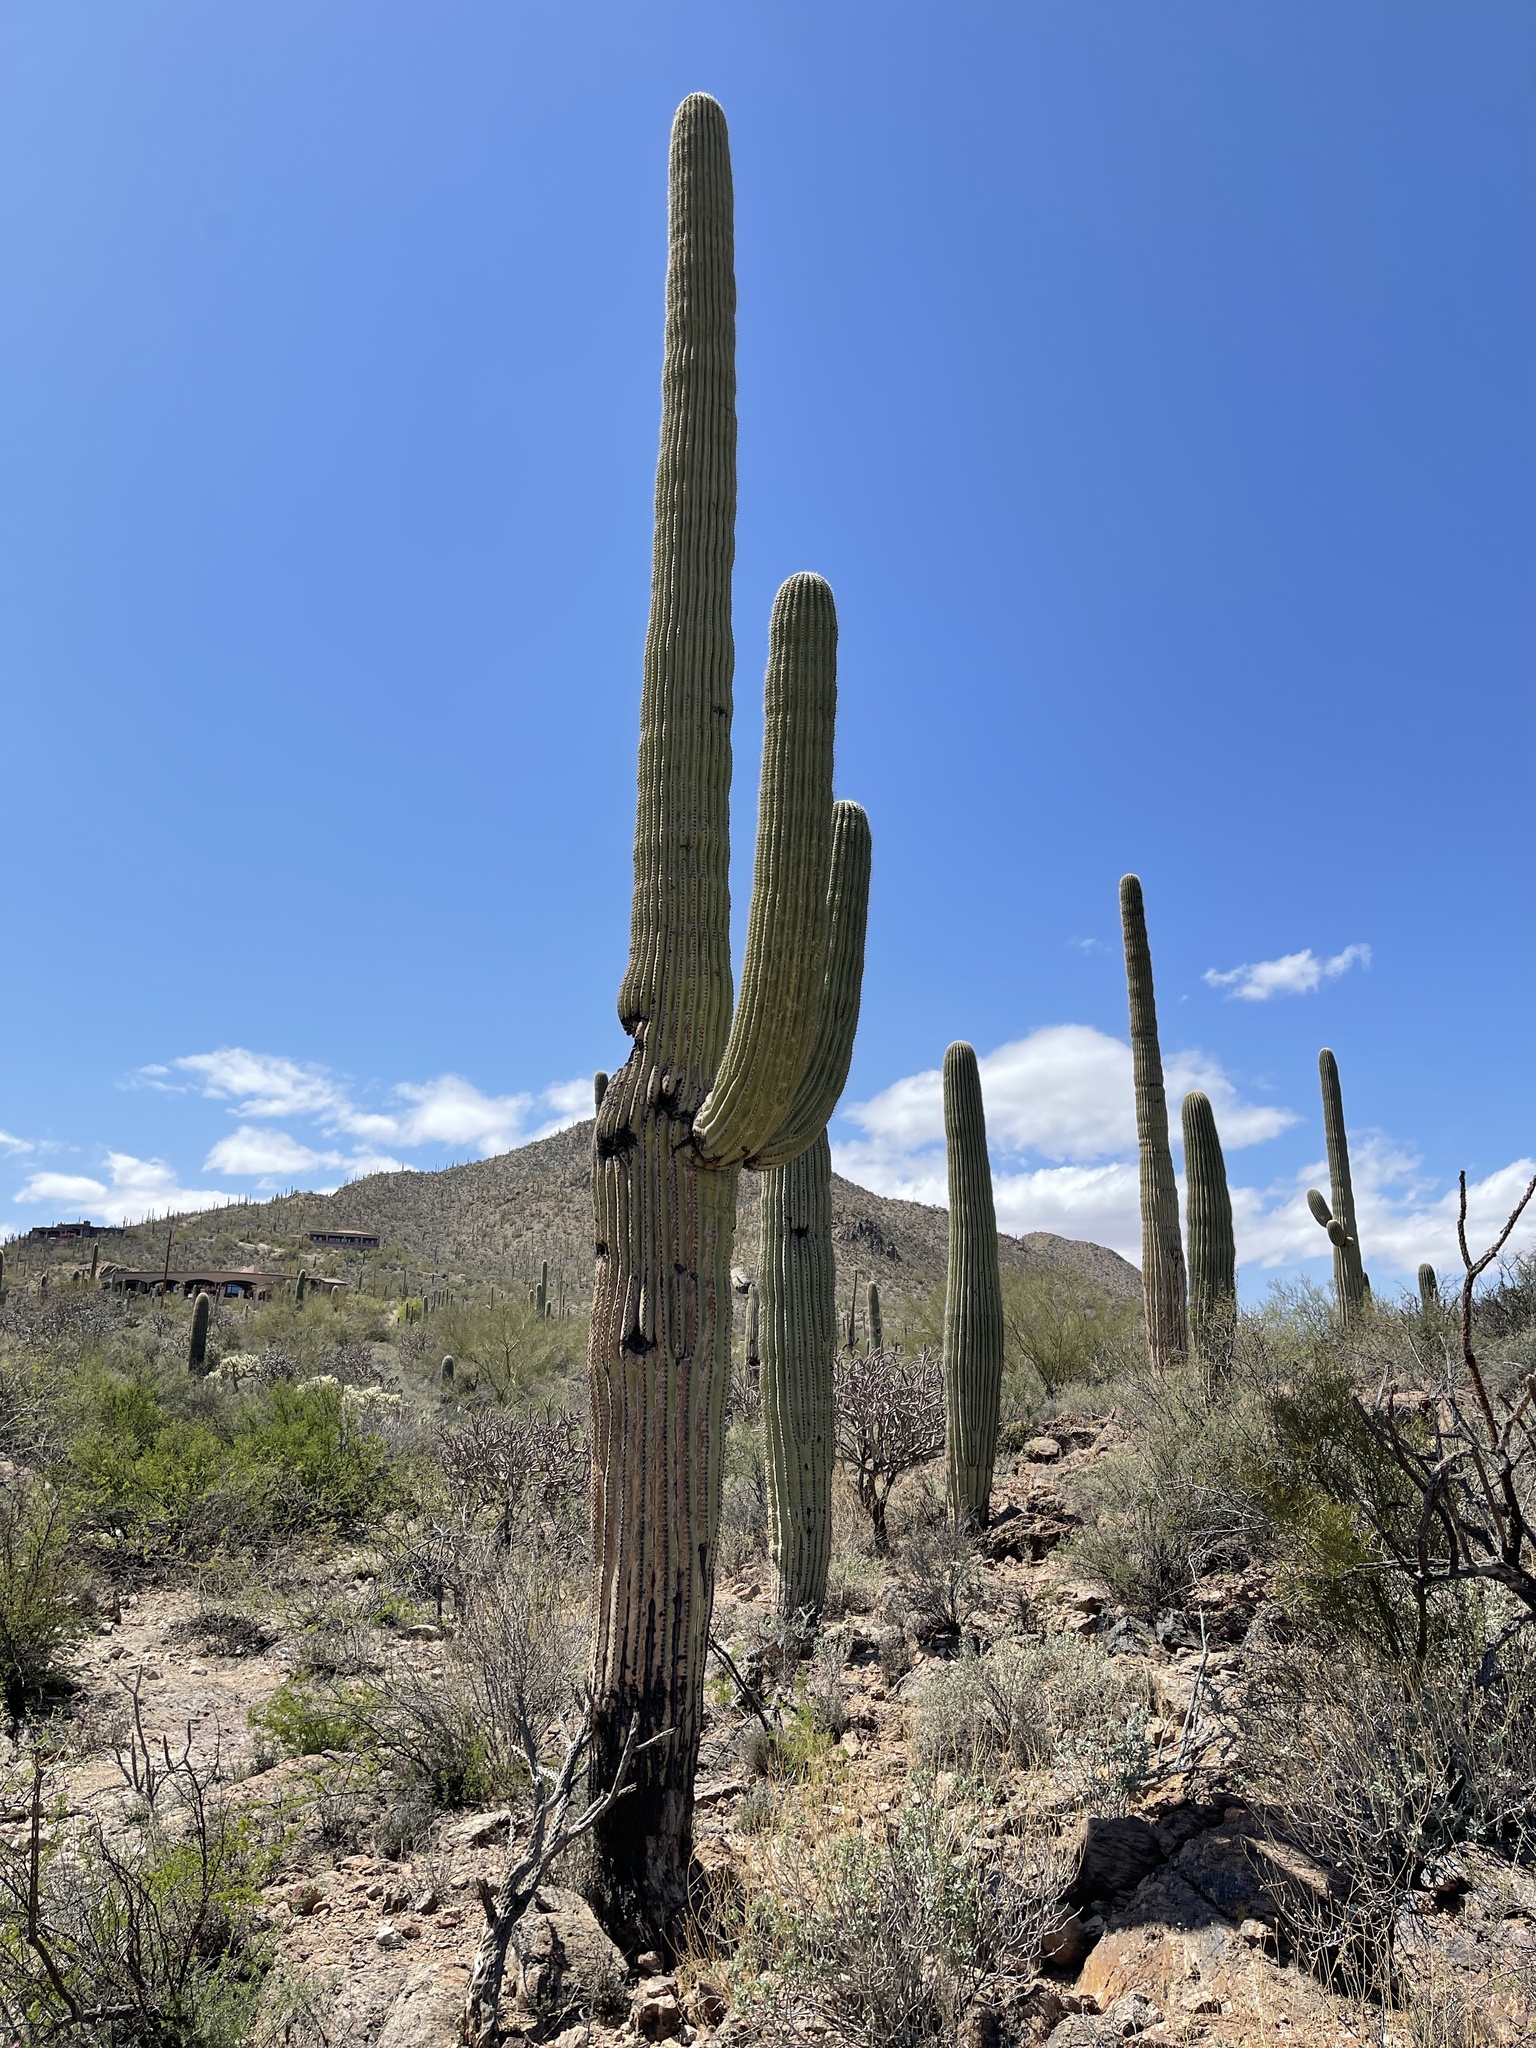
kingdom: Plantae
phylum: Tracheophyta
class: Magnoliopsida
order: Caryophyllales
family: Cactaceae
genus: Carnegiea
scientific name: Carnegiea gigantea
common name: Saguaro
